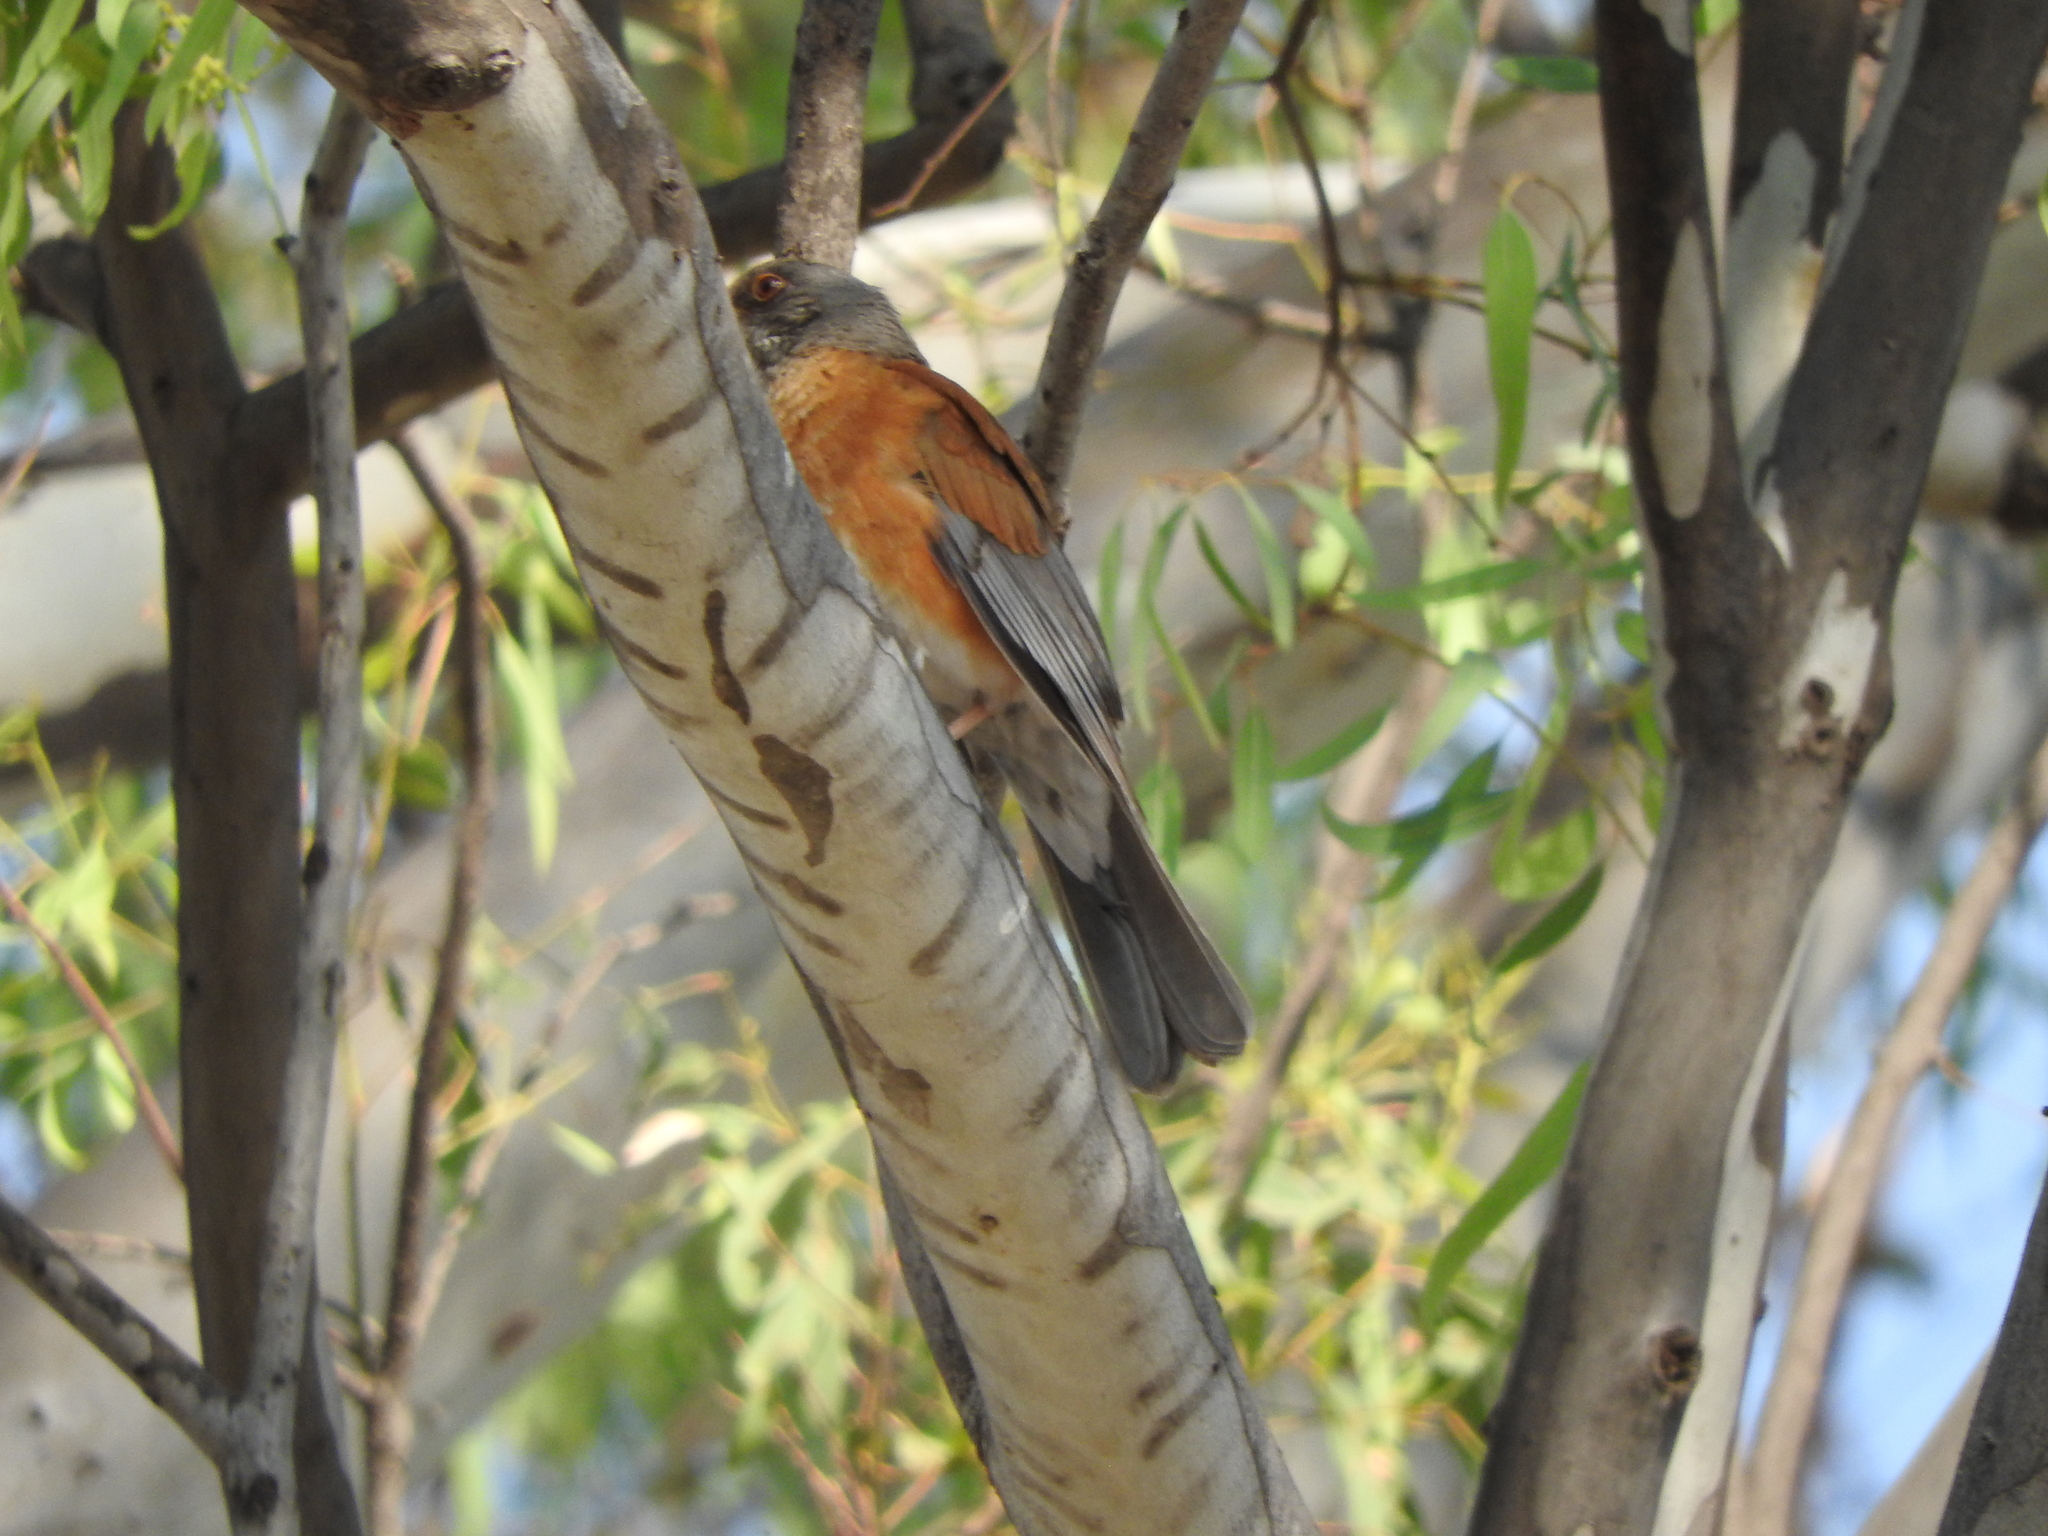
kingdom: Animalia
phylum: Chordata
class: Aves
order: Passeriformes
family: Turdidae
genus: Turdus
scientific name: Turdus rufopalliatus
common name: Rufous-backed robin
